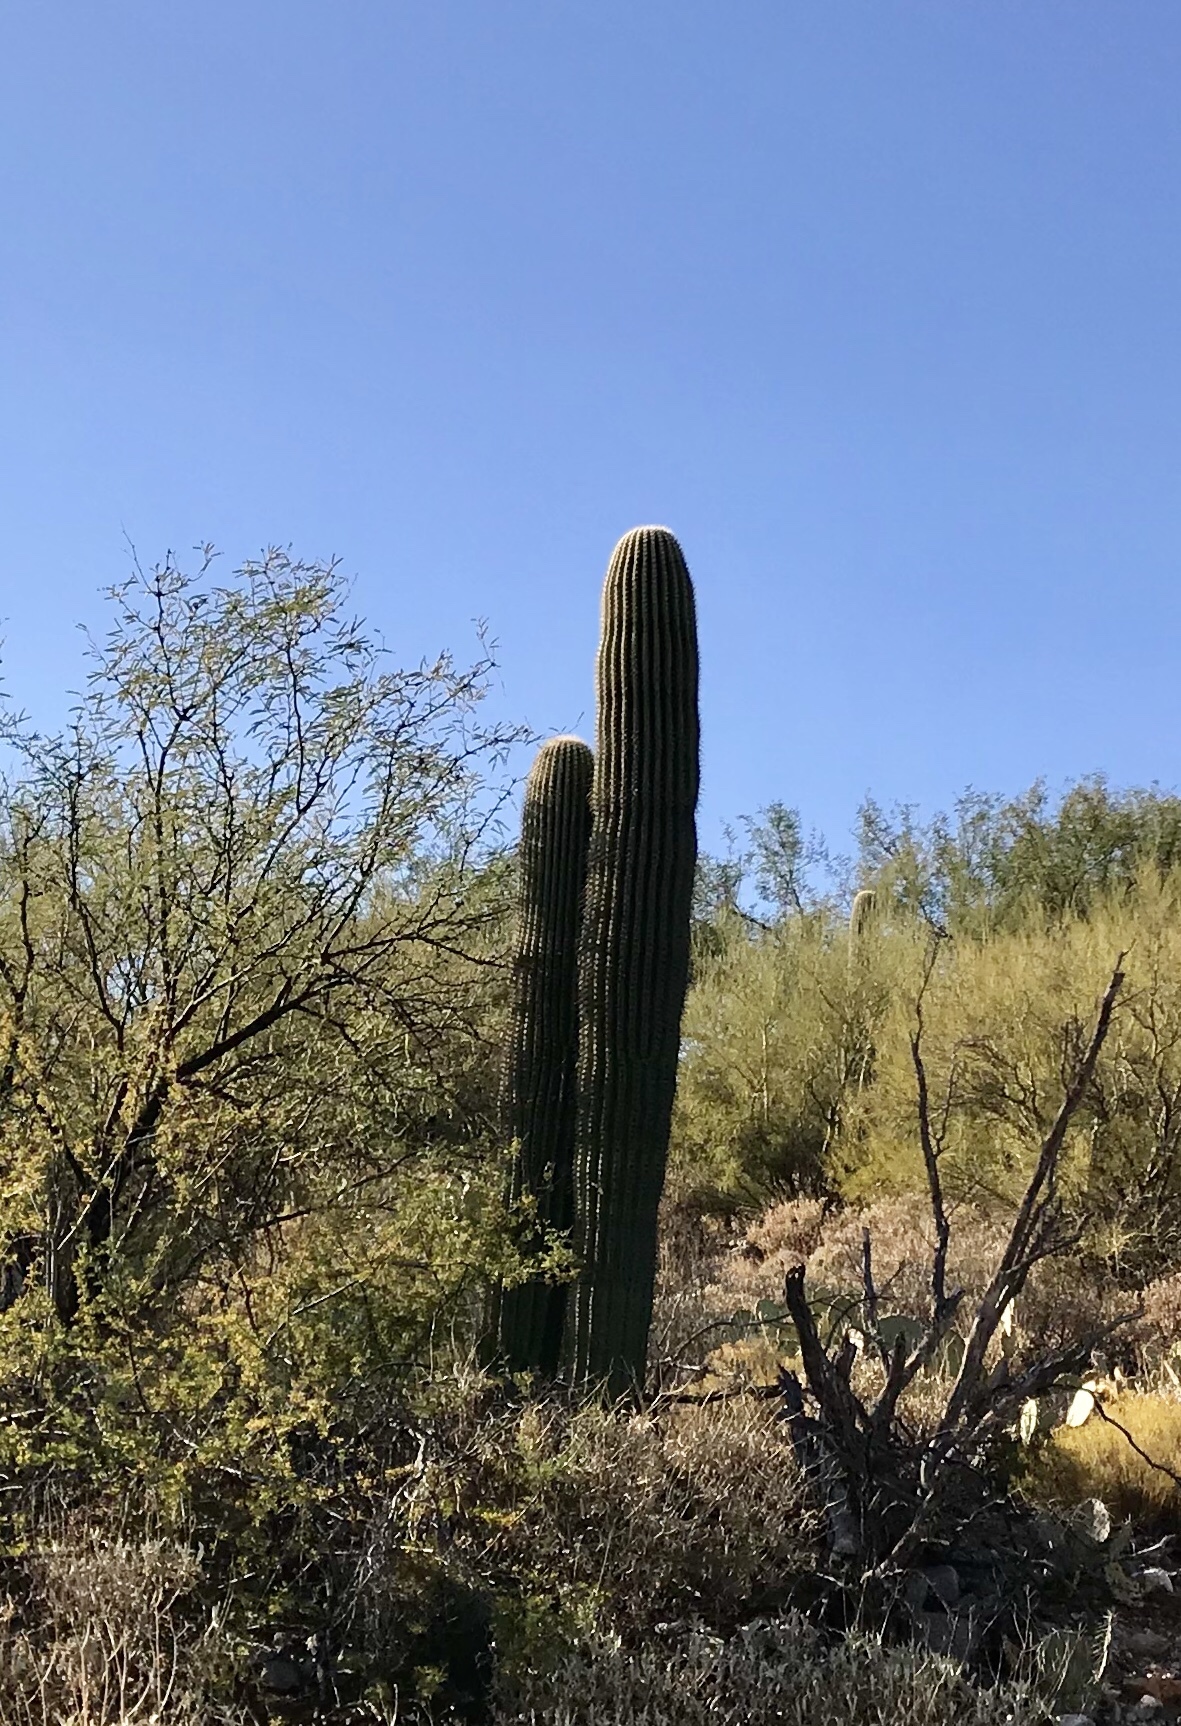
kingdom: Plantae
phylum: Tracheophyta
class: Magnoliopsida
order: Caryophyllales
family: Cactaceae
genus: Carnegiea
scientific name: Carnegiea gigantea
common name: Saguaro
